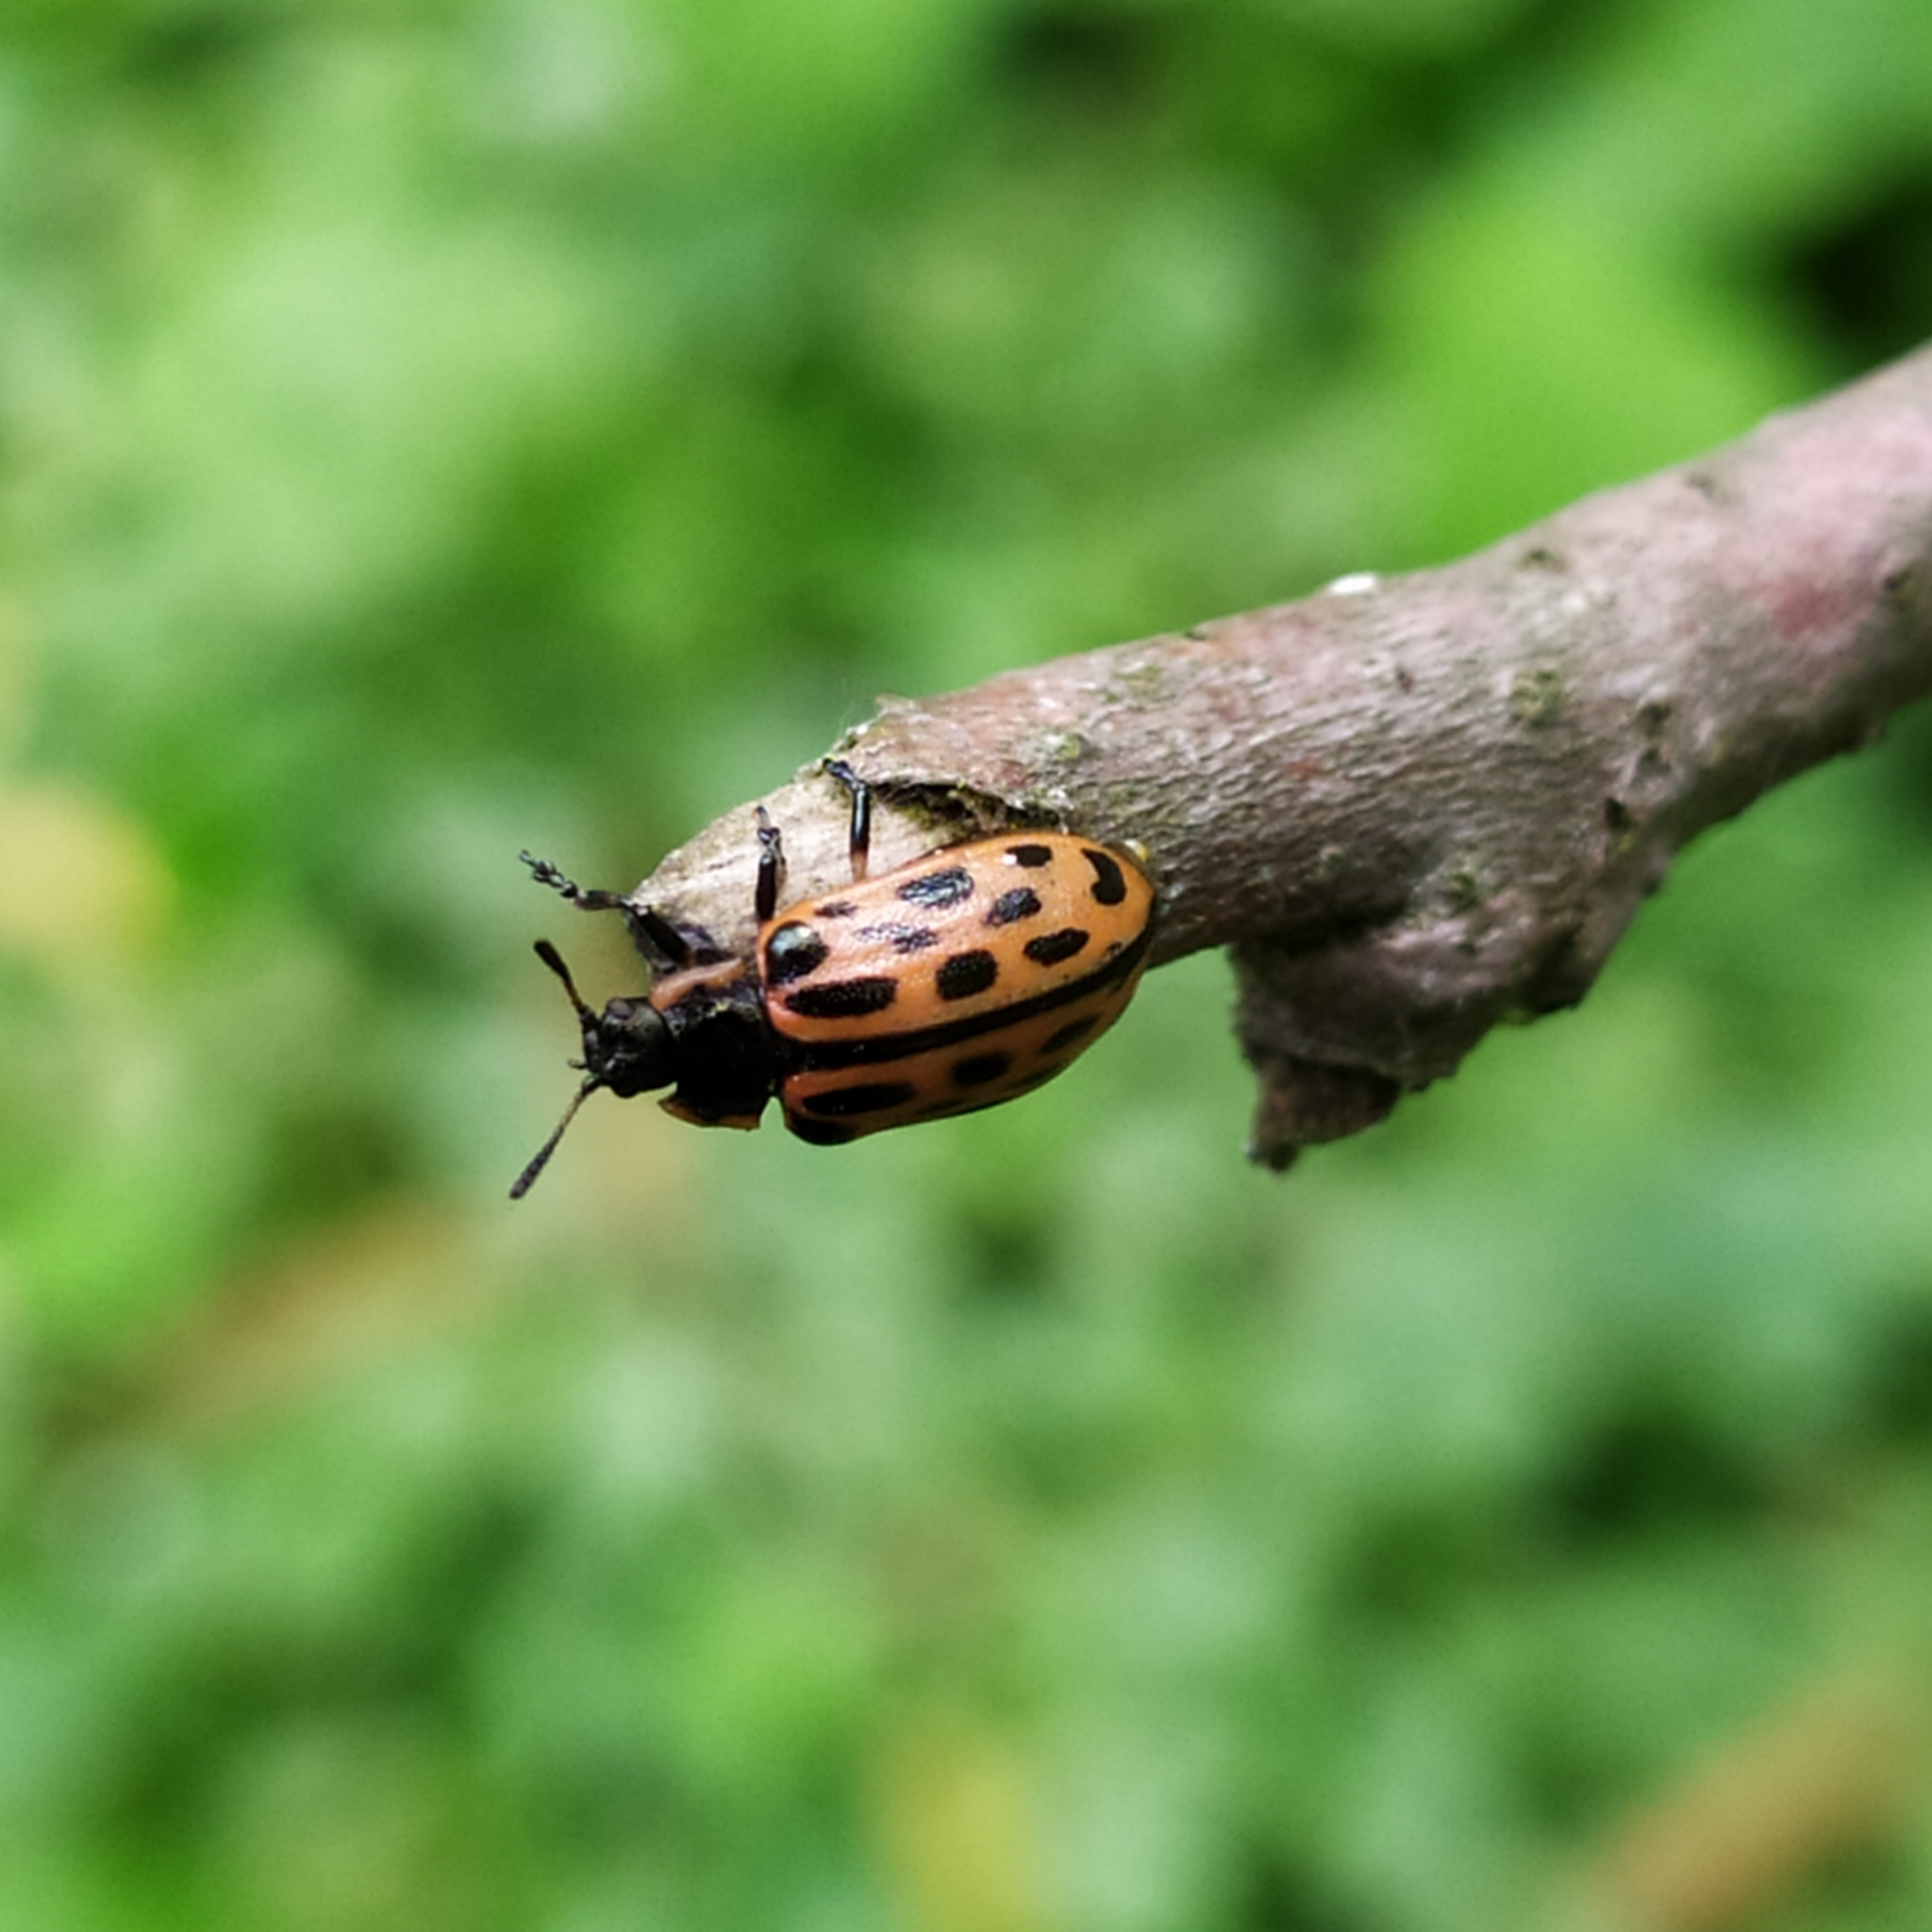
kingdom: Animalia
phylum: Arthropoda
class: Insecta
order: Coleoptera
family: Chrysomelidae
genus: Chrysomela
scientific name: Chrysomela vigintipunctata
